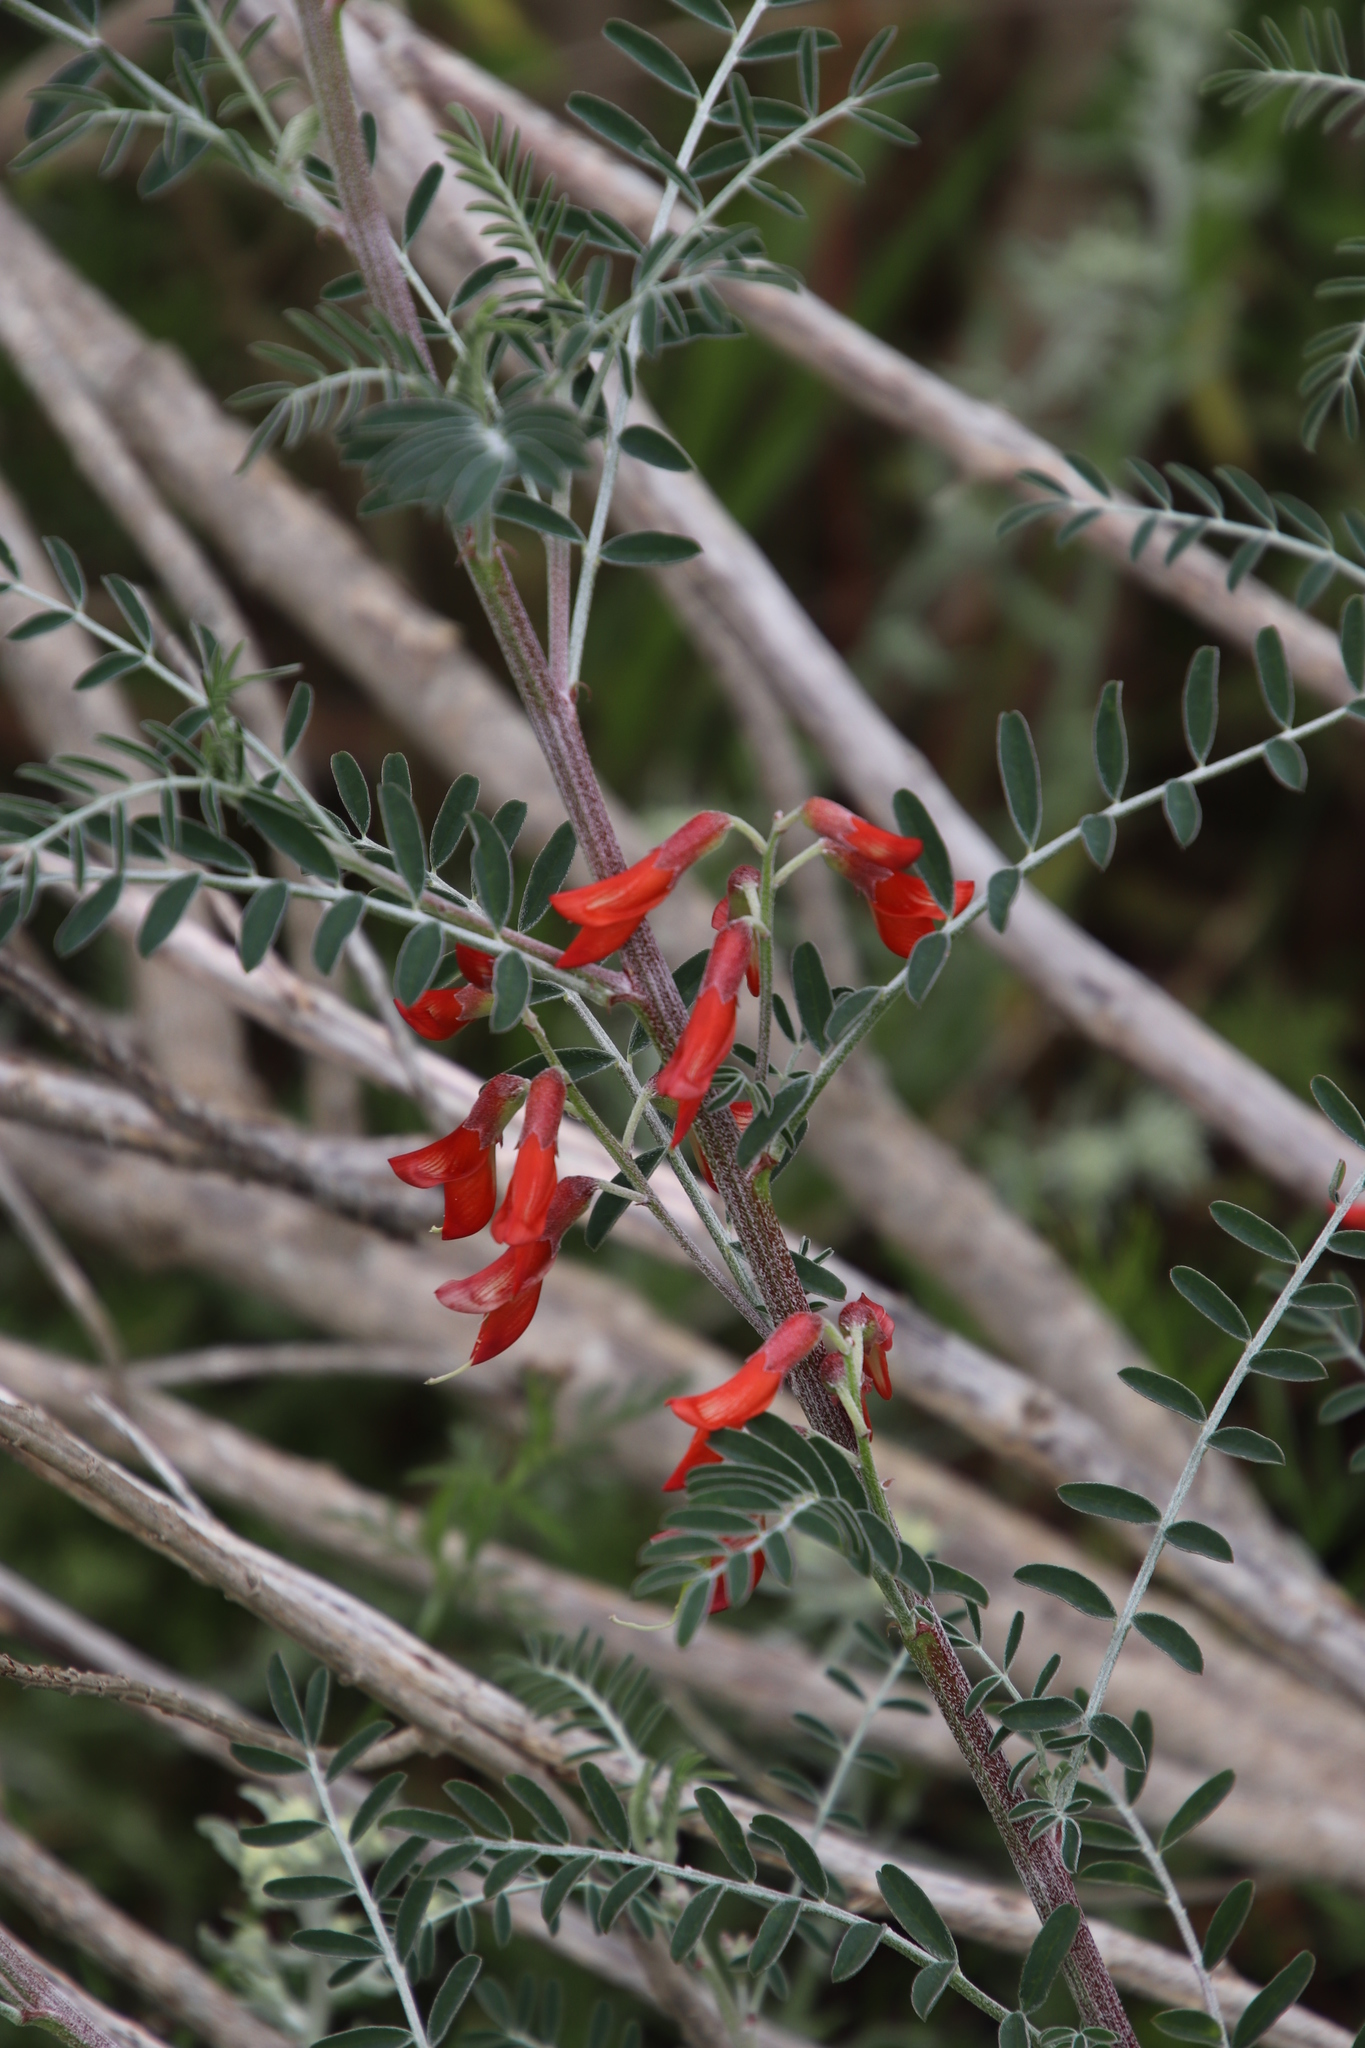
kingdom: Plantae
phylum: Tracheophyta
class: Magnoliopsida
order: Fabales
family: Fabaceae
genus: Lessertia
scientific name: Lessertia frutescens
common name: Balloon-pea
